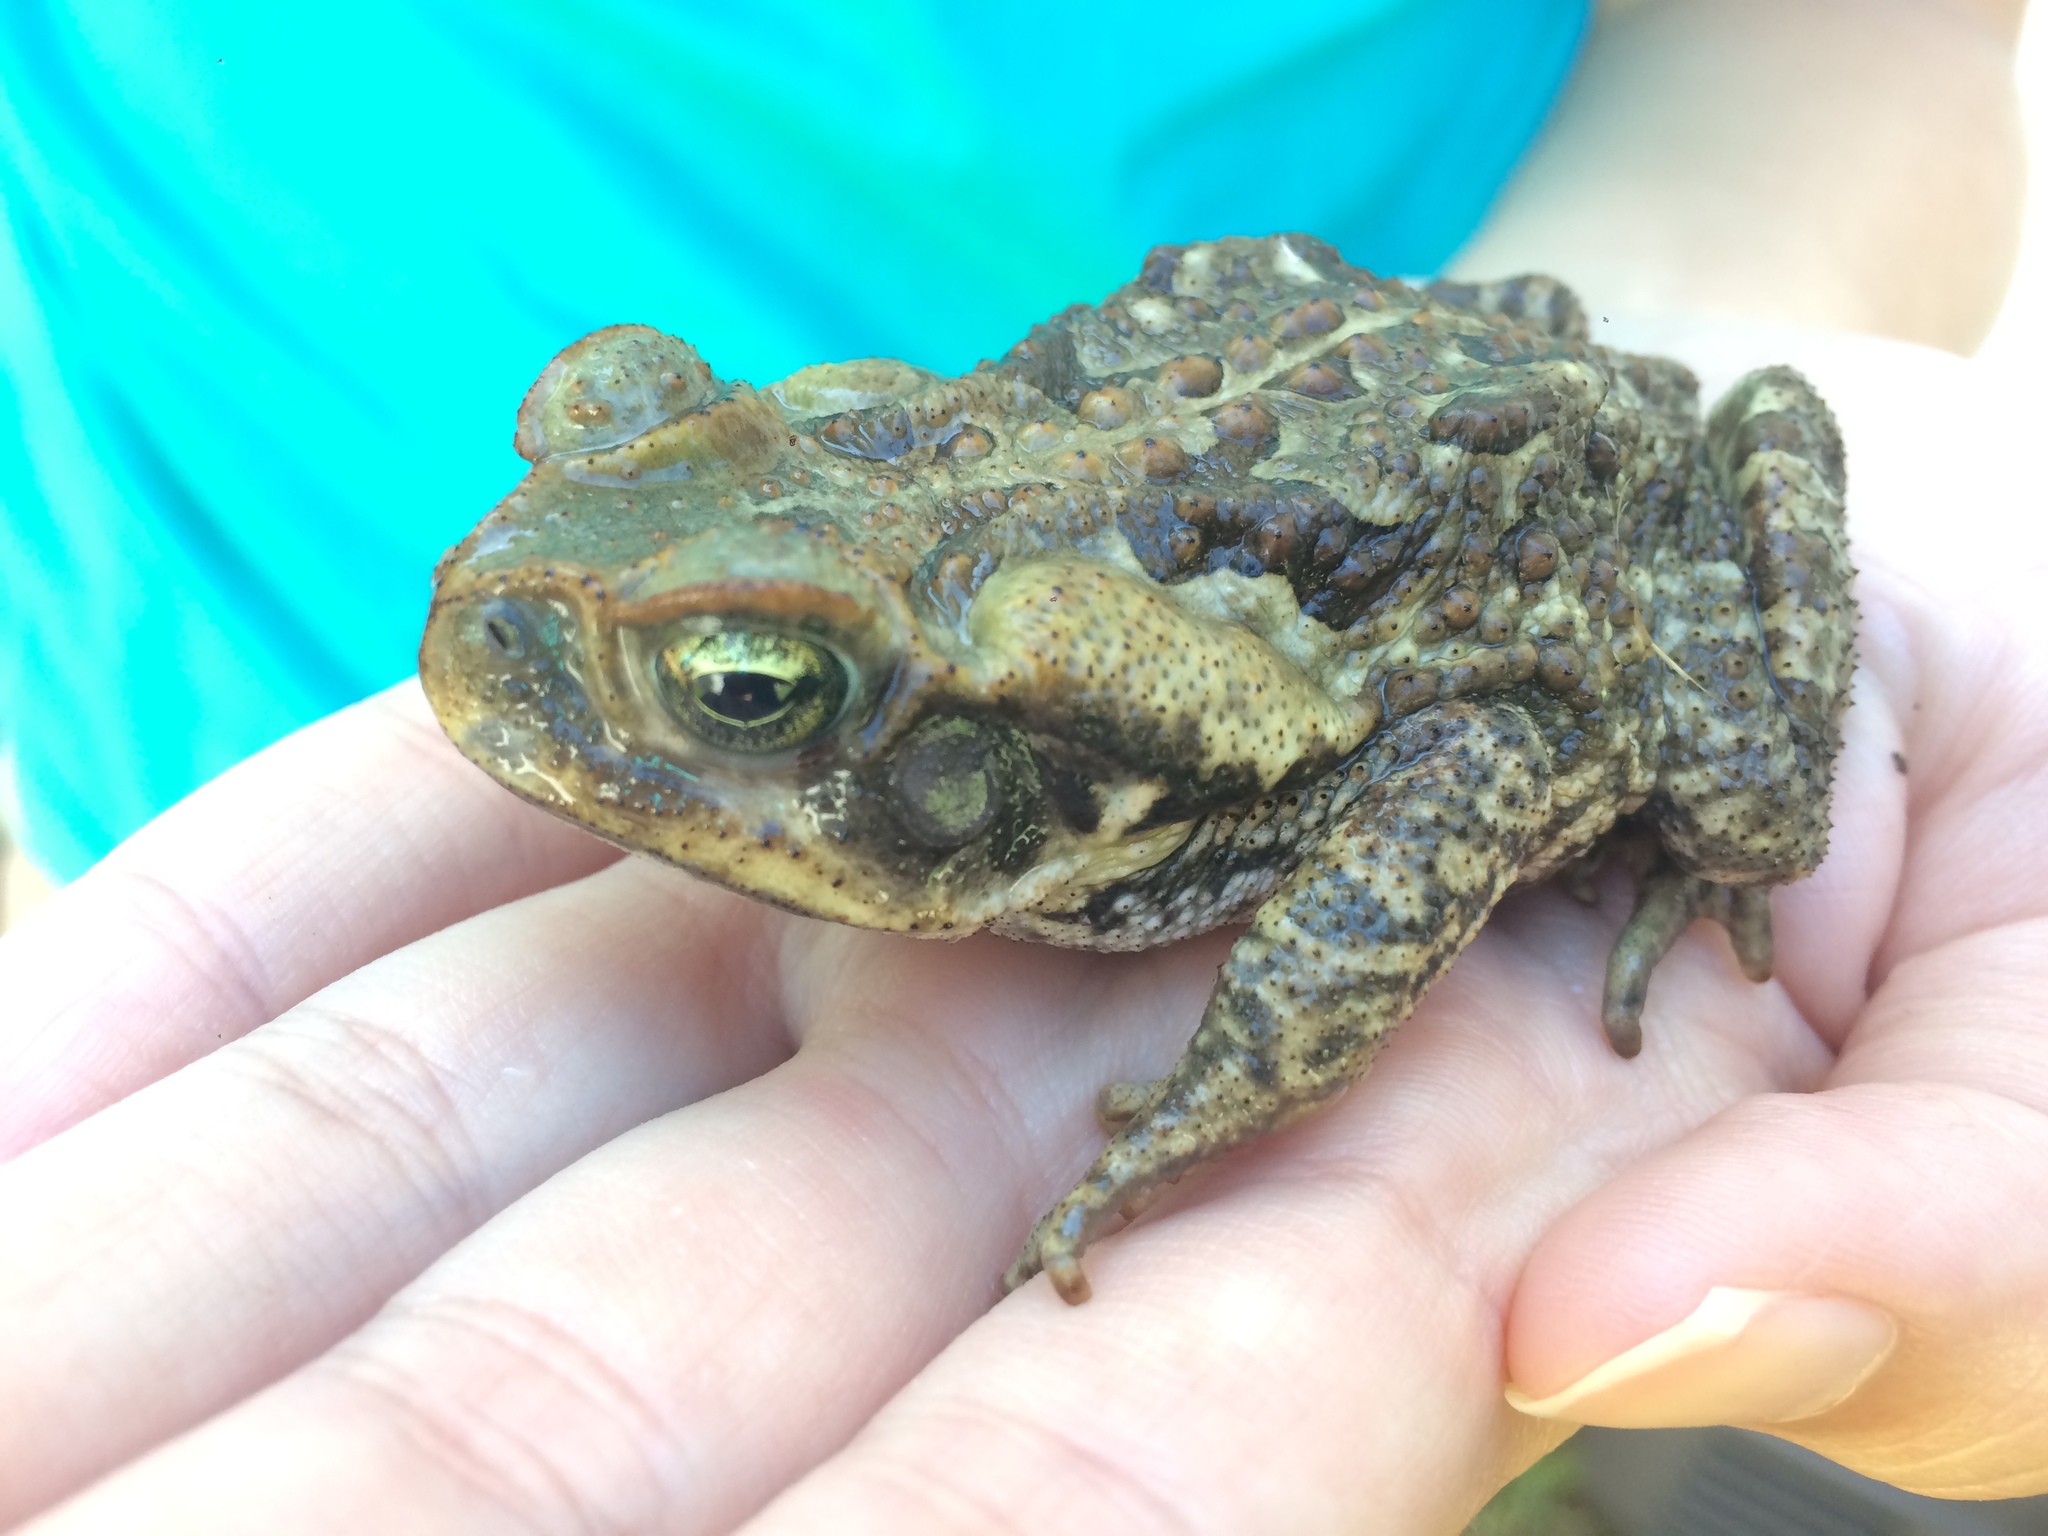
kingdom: Animalia
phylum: Chordata
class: Amphibia
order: Anura
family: Bufonidae
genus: Rhinella
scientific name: Rhinella diptycha
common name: Cope's toad
